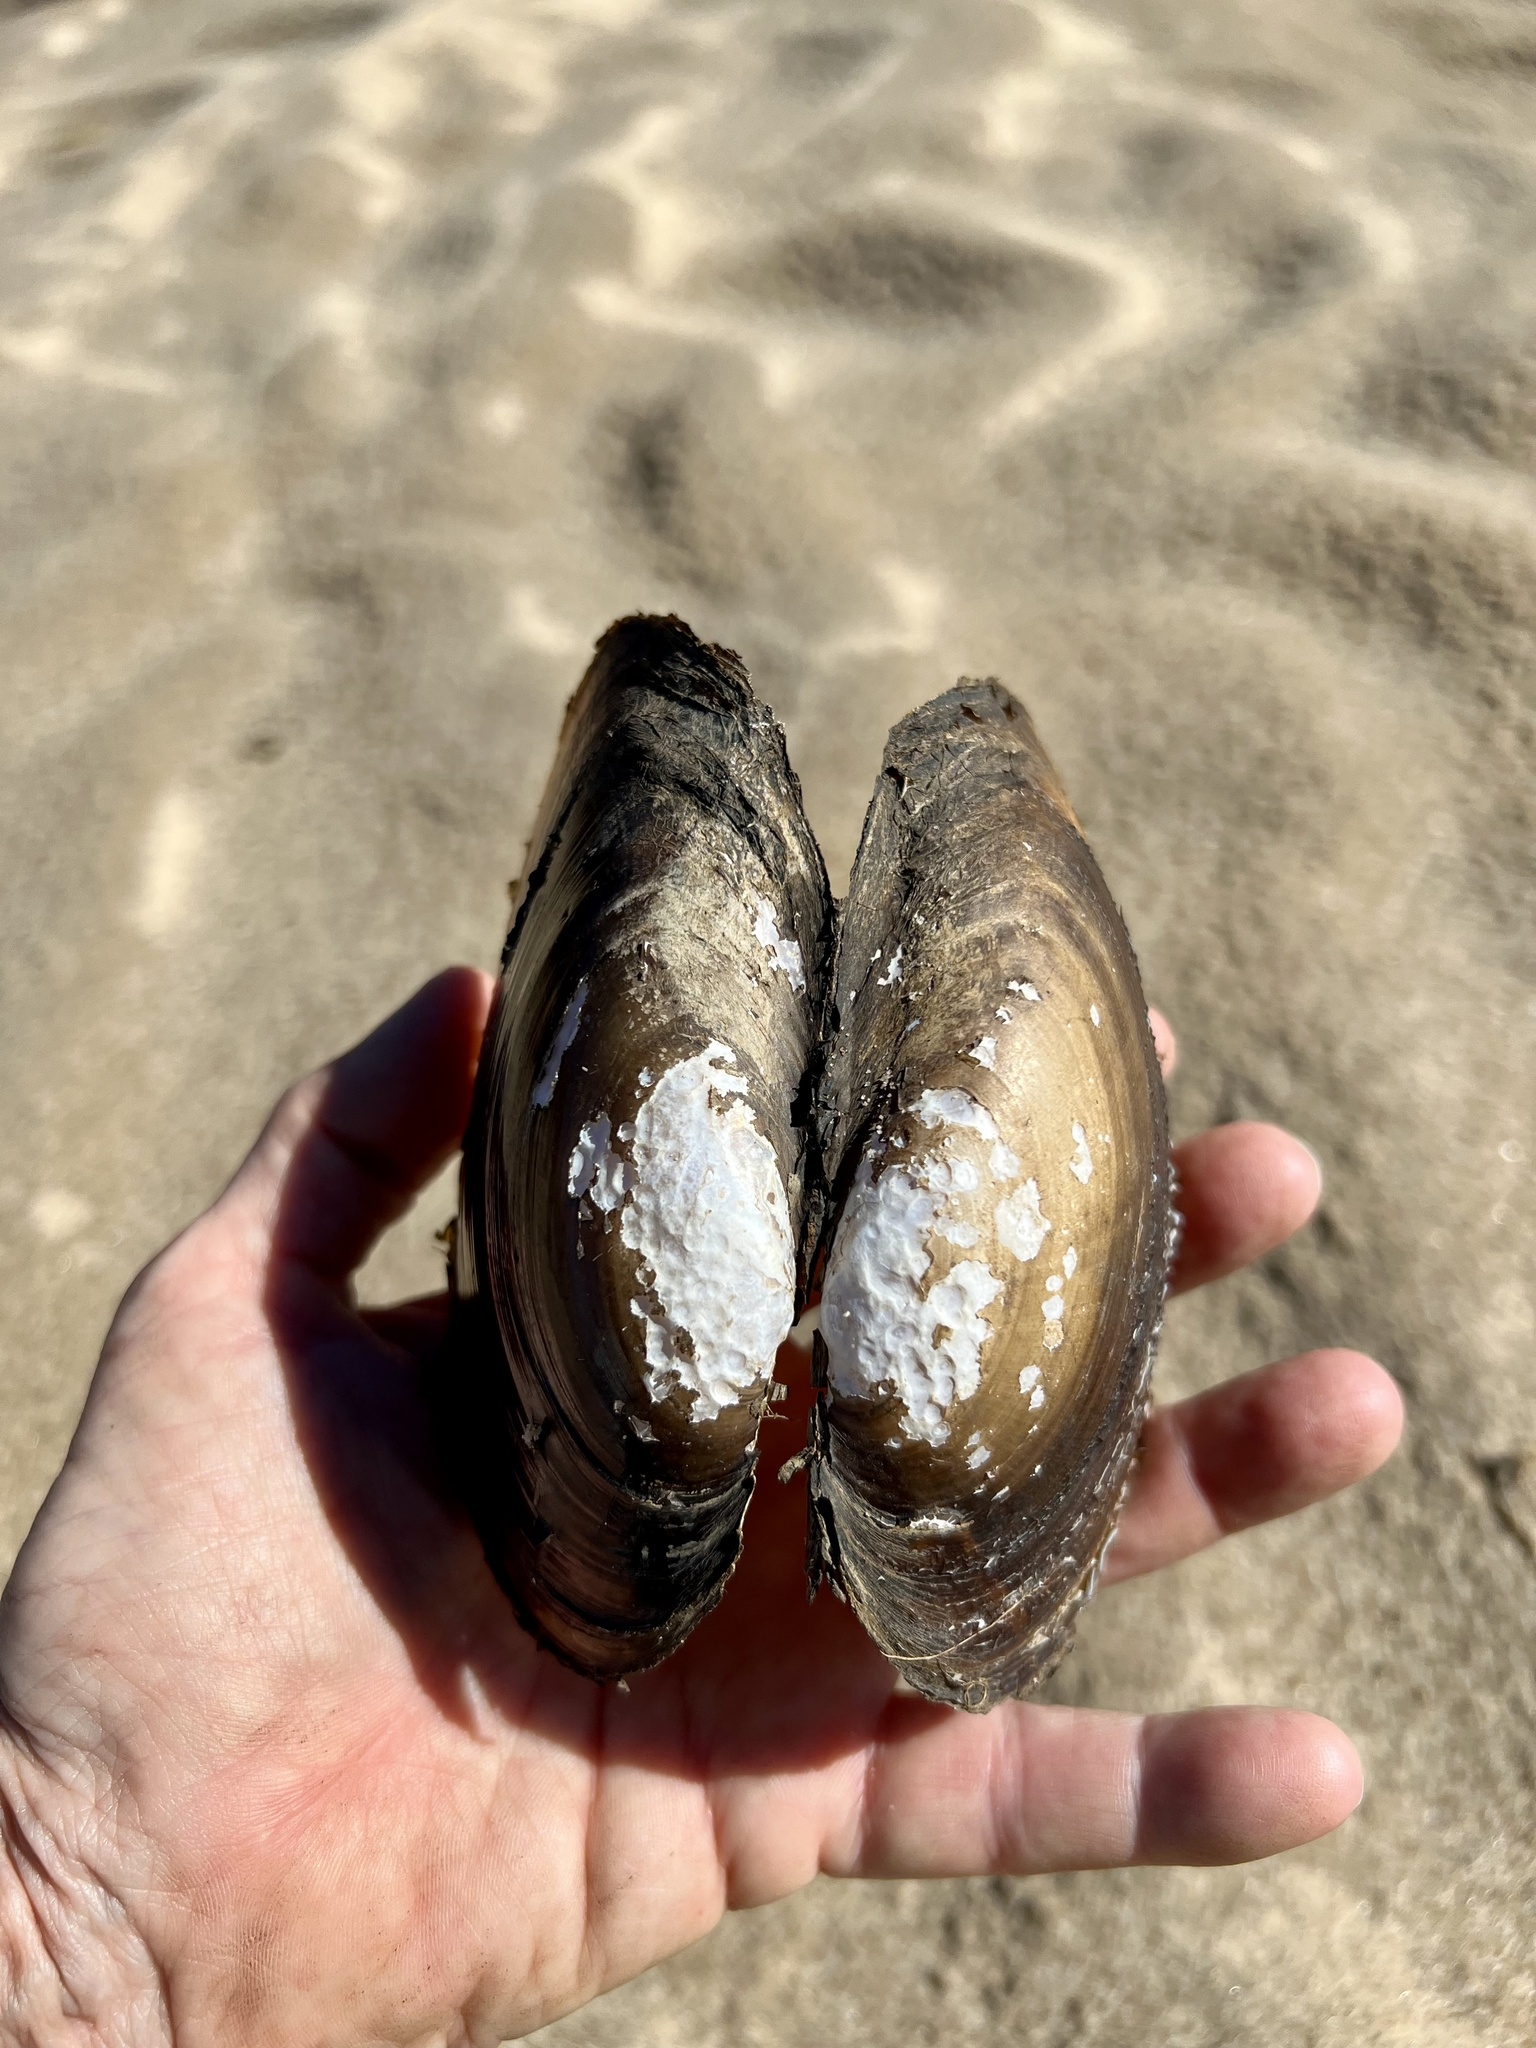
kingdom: Animalia
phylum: Mollusca
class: Bivalvia
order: Unionida
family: Unionidae
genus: Potamilus
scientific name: Potamilus amphichaenus
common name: Texas heelsplitter
